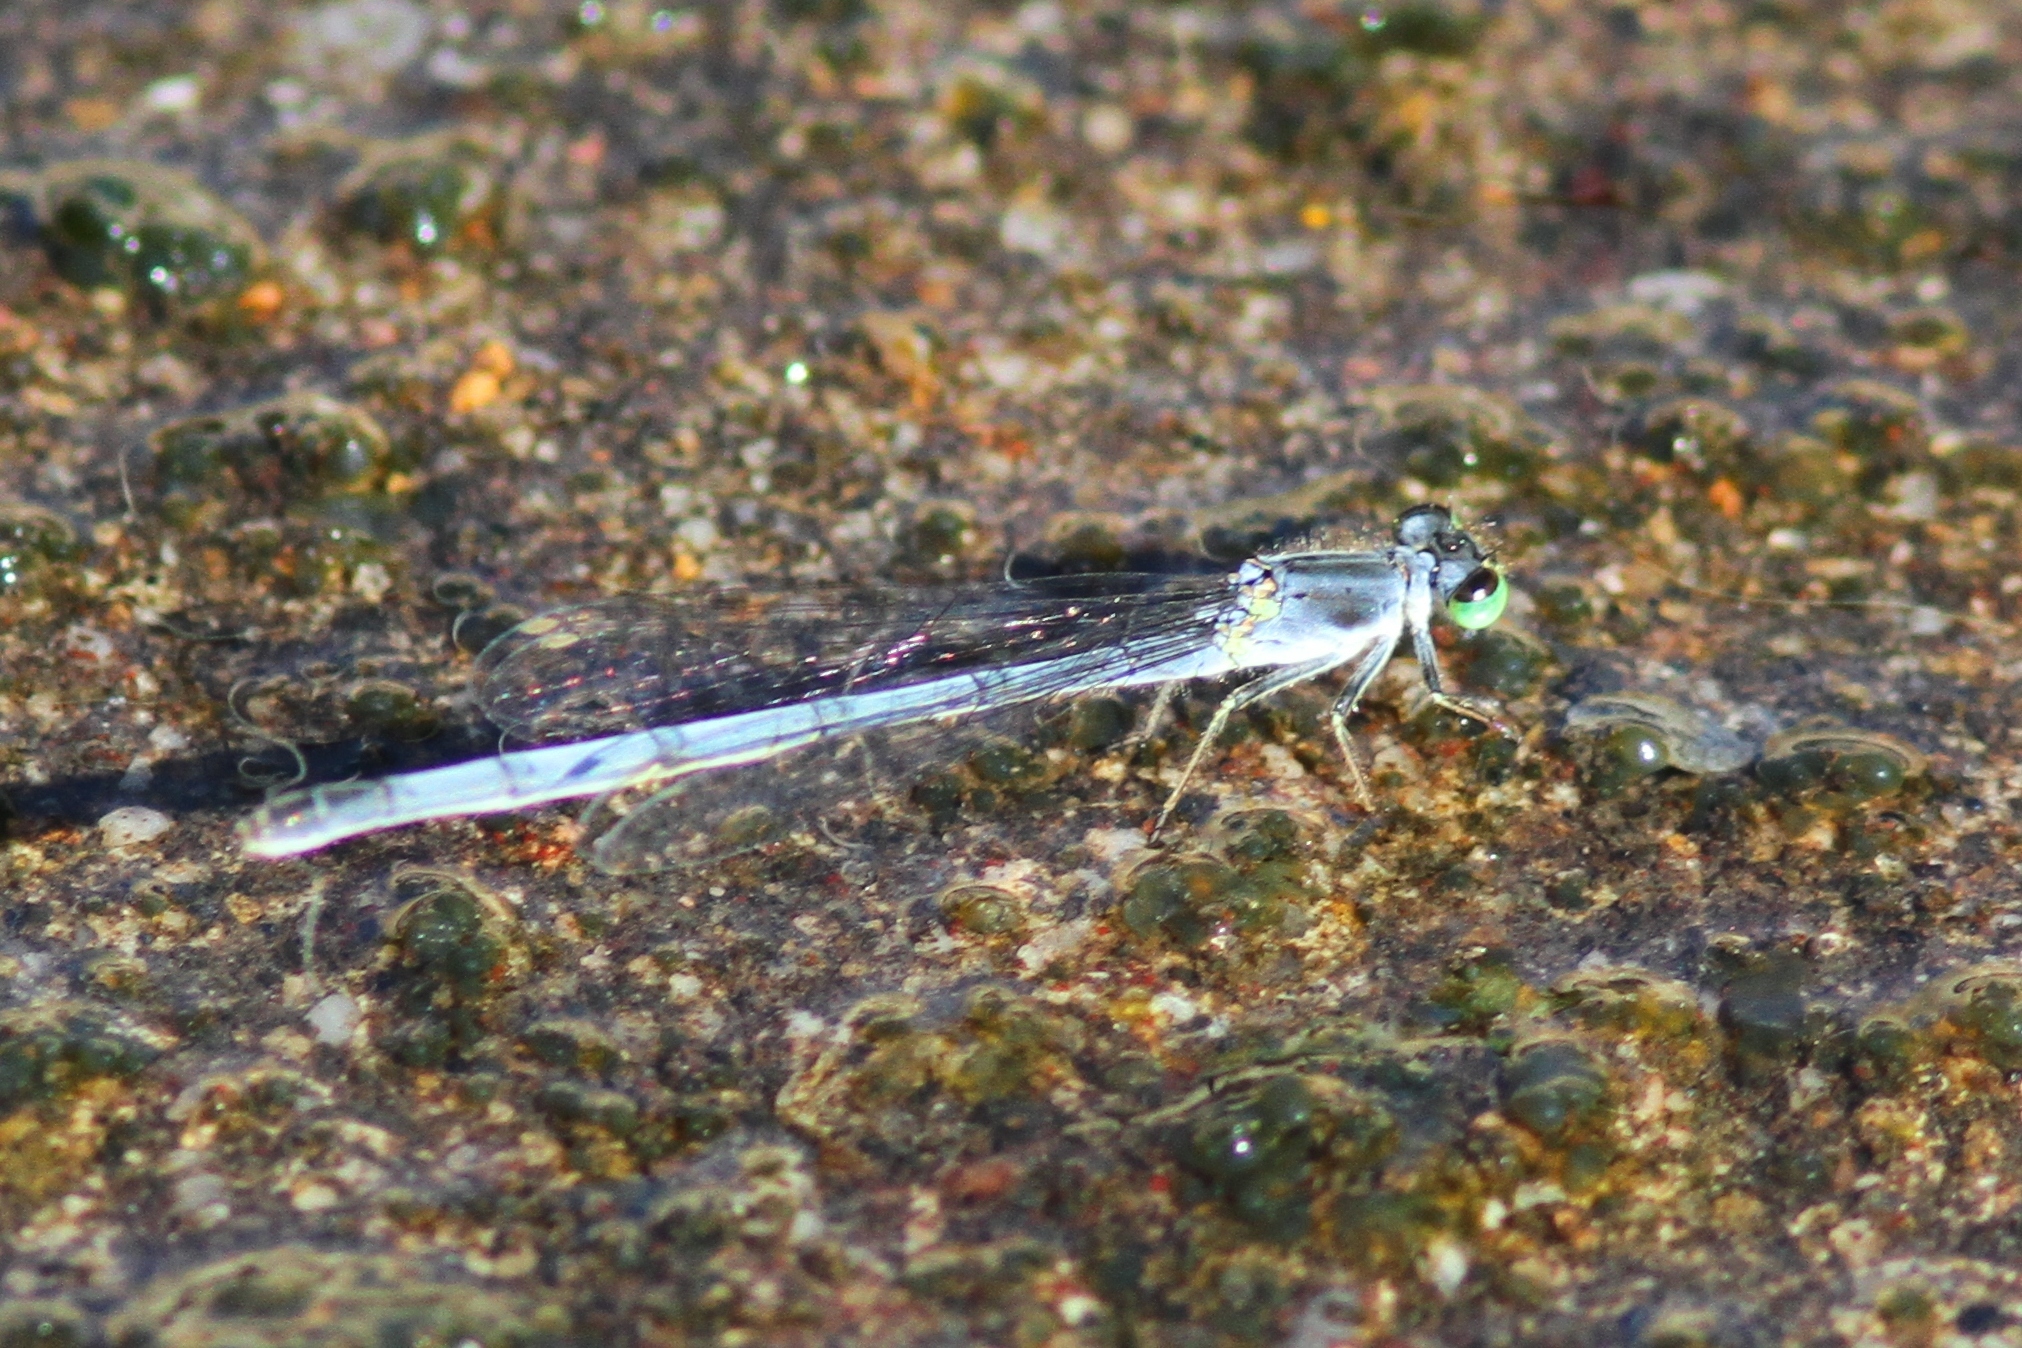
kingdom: Animalia
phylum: Arthropoda
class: Insecta
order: Odonata
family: Coenagrionidae
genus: Ischnura
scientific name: Ischnura verticalis
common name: Eastern forktail
